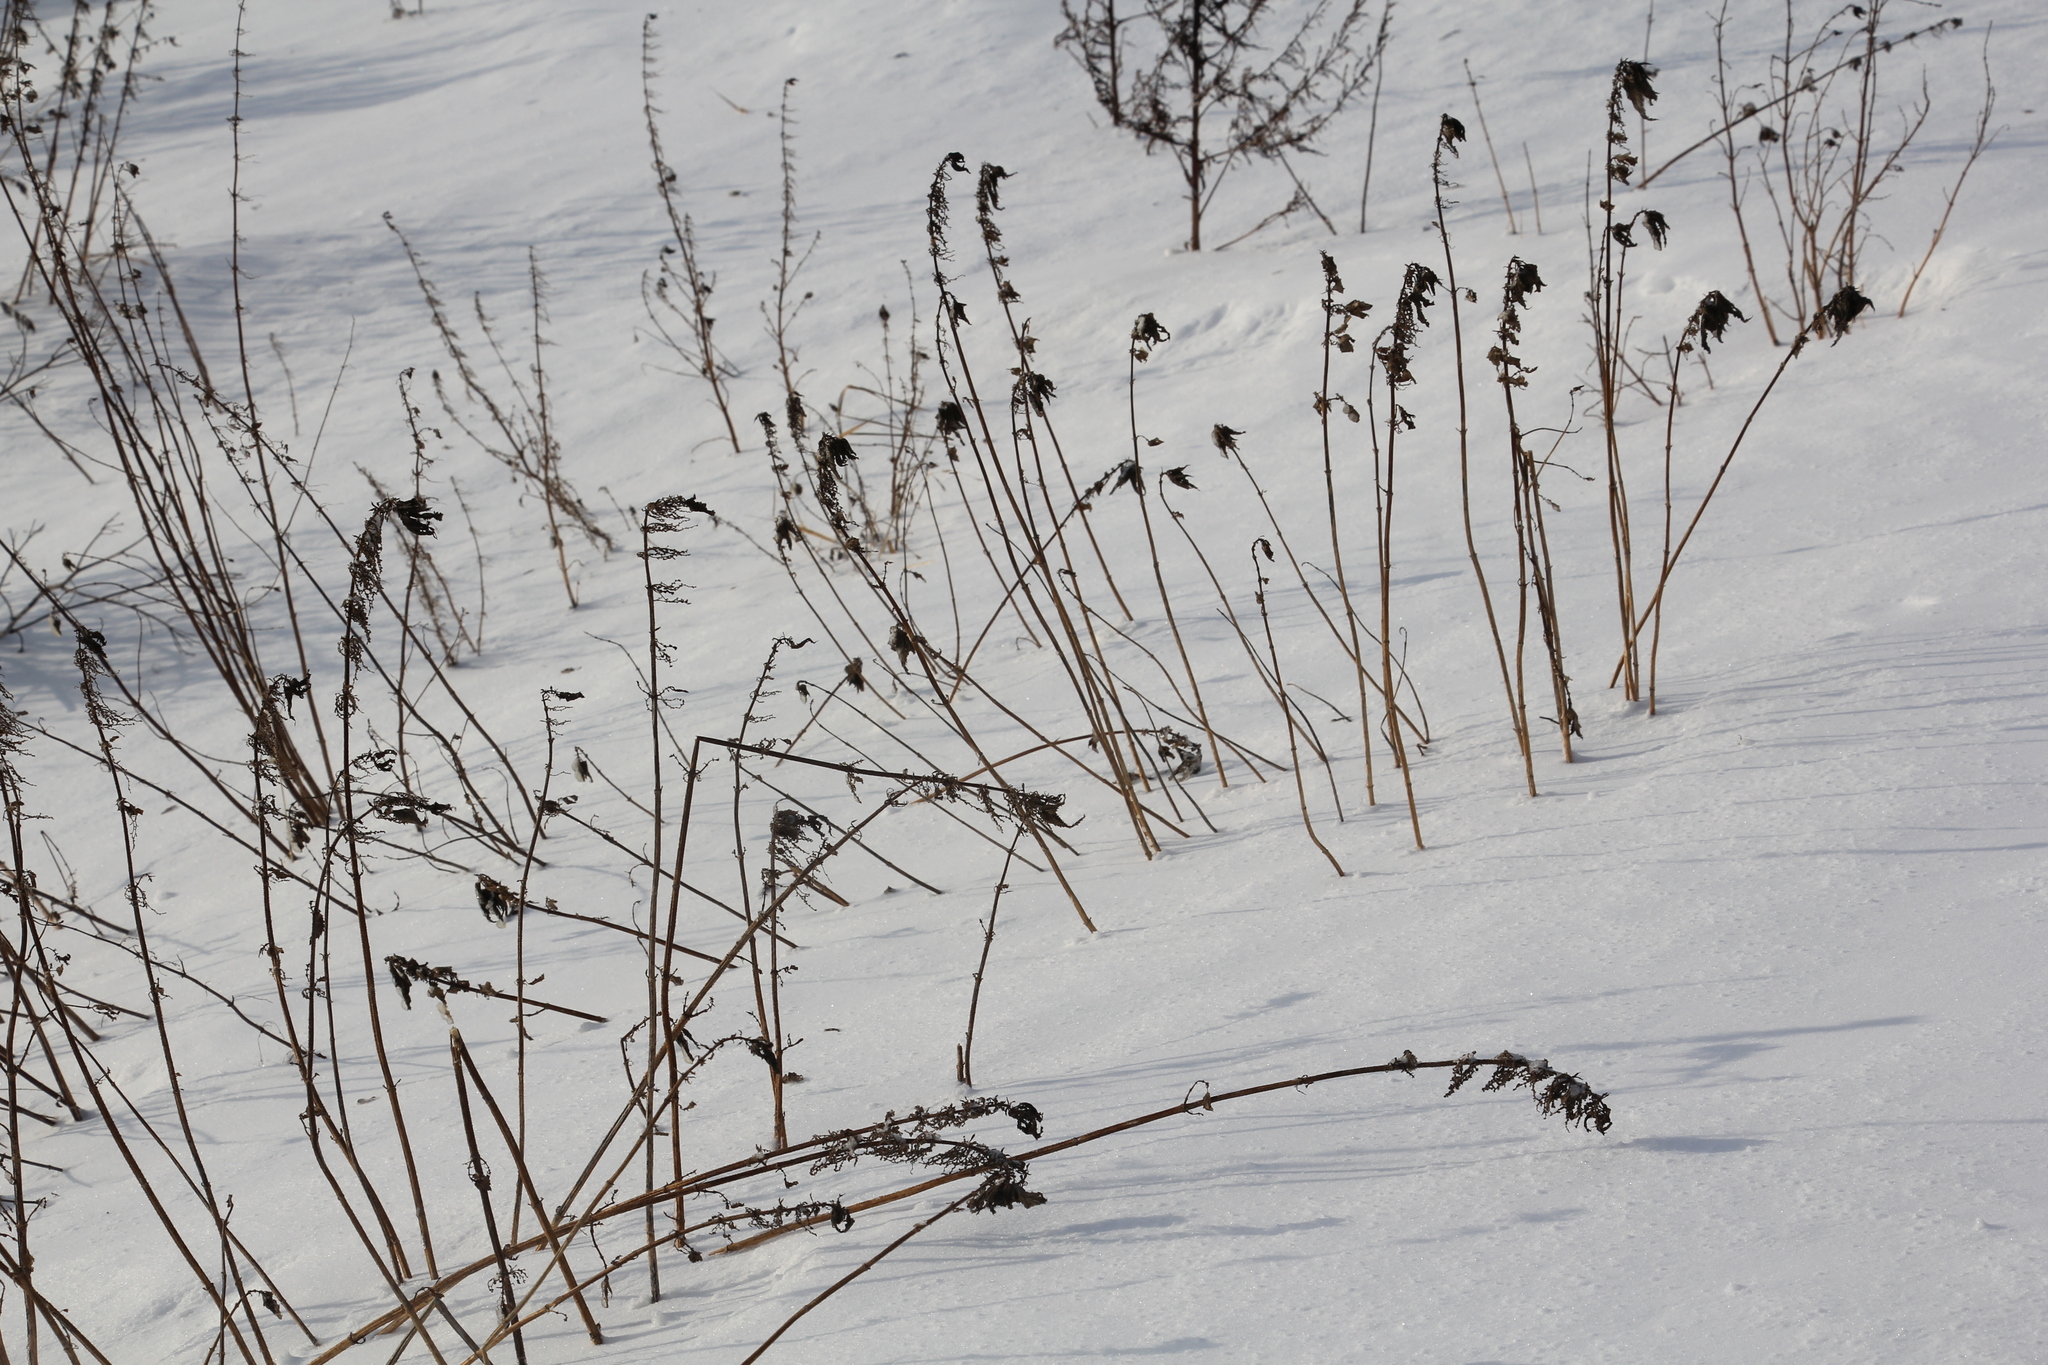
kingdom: Plantae
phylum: Tracheophyta
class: Magnoliopsida
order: Rosales
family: Urticaceae
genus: Urtica
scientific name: Urtica dioica
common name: Common nettle
